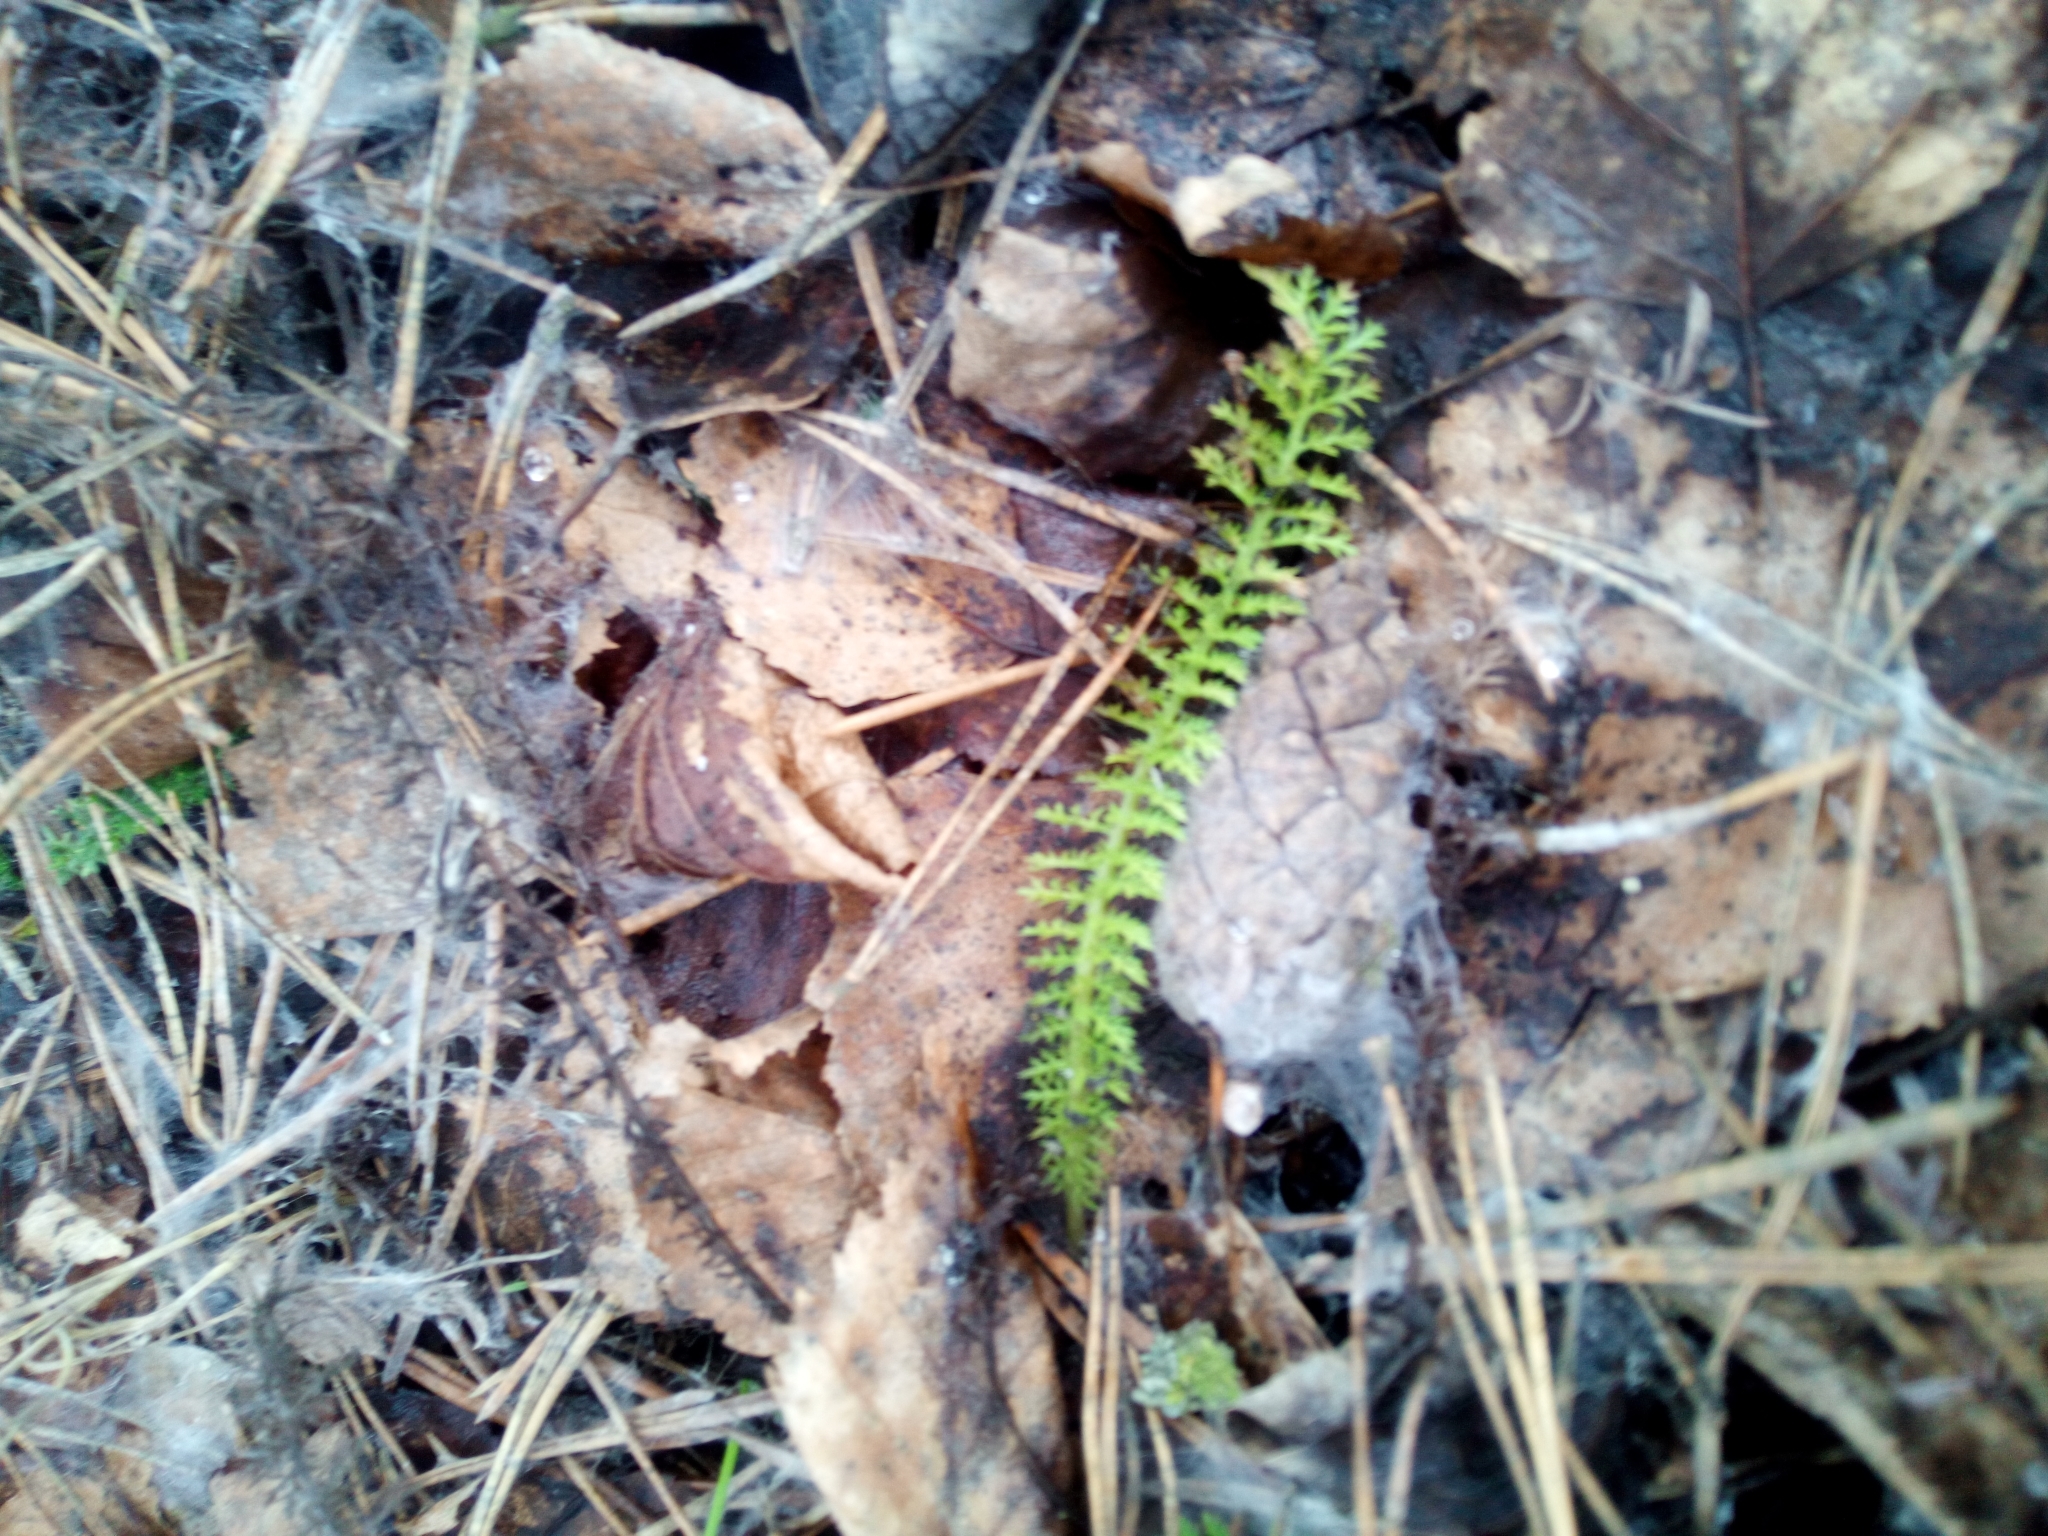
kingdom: Plantae
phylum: Tracheophyta
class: Magnoliopsida
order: Asterales
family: Asteraceae
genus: Achillea
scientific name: Achillea millefolium
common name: Yarrow
